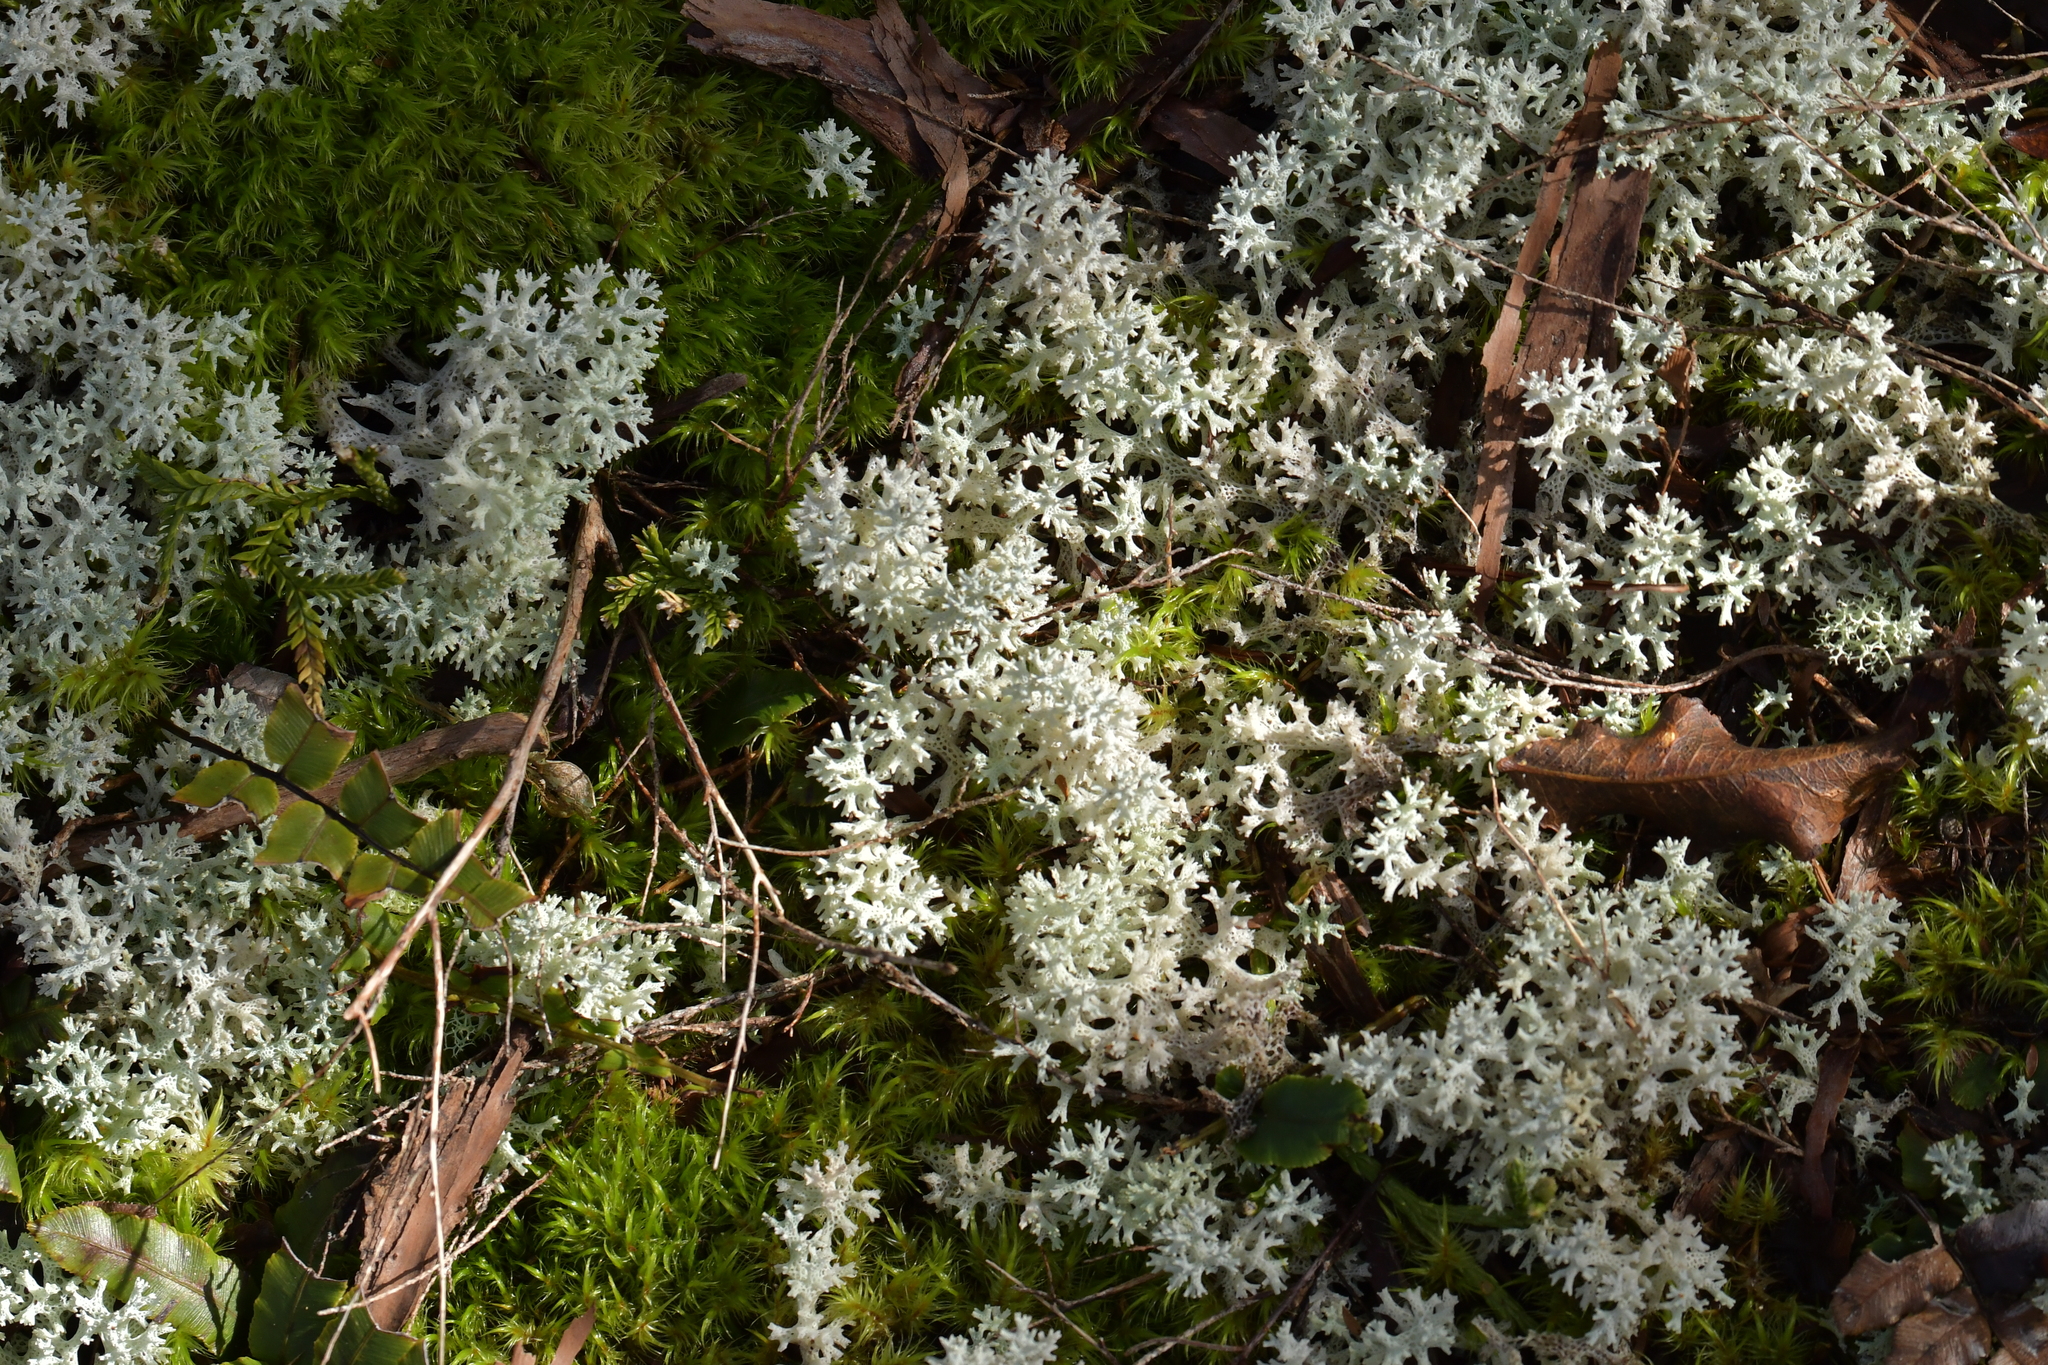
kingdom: Fungi
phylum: Ascomycota
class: Lecanoromycetes
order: Lecanorales
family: Cladoniaceae
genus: Pulchrocladia
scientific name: Pulchrocladia retipora
